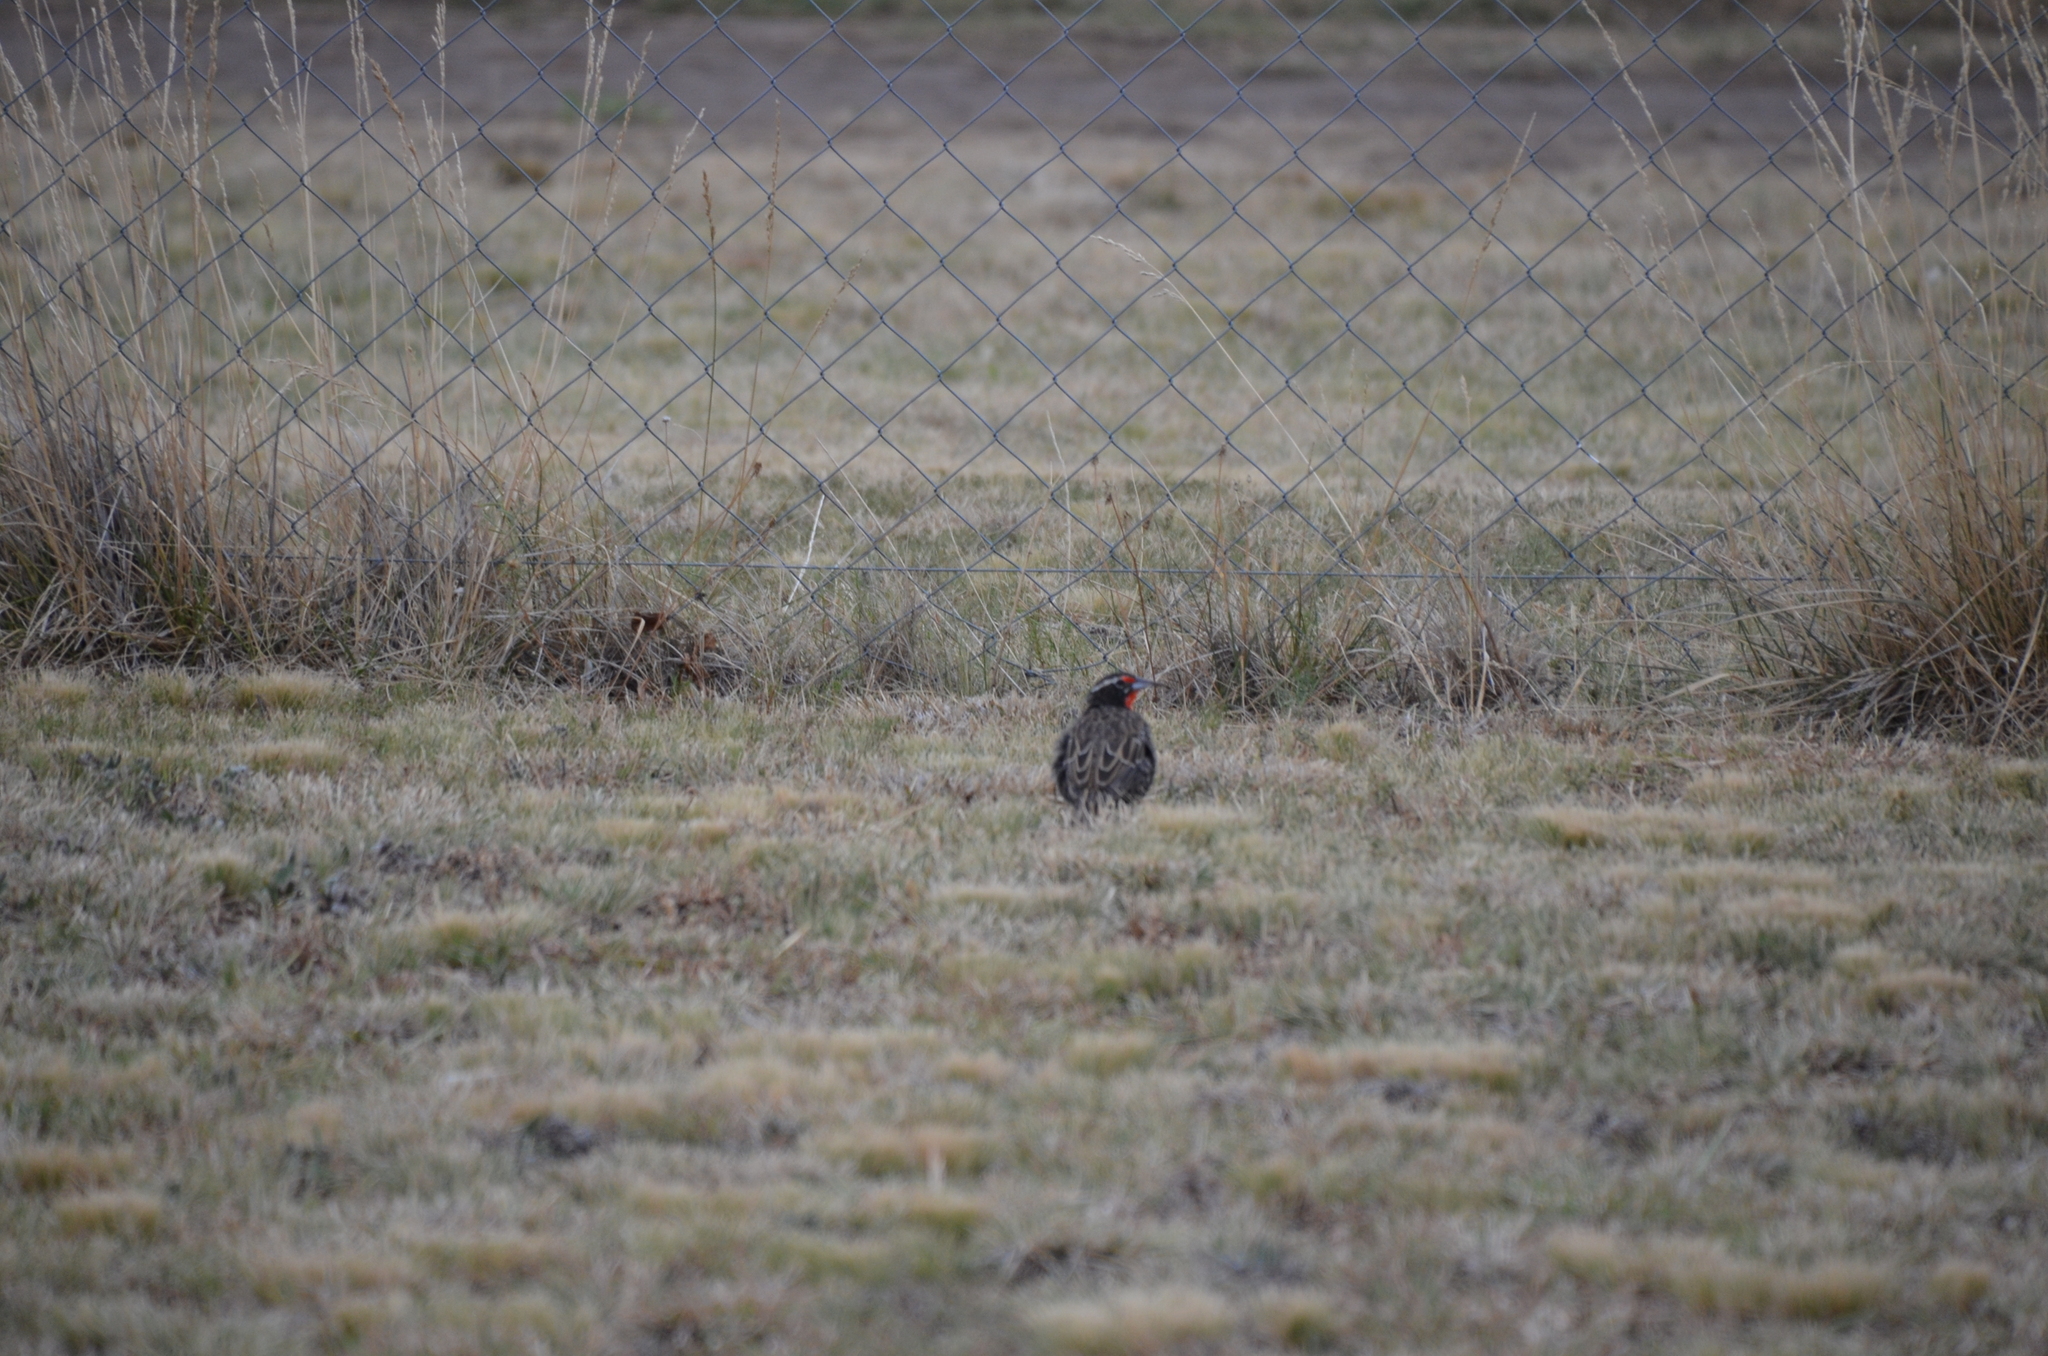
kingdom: Animalia
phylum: Chordata
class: Aves
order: Passeriformes
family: Icteridae
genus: Sturnella
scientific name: Sturnella loyca
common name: Long-tailed meadowlark
